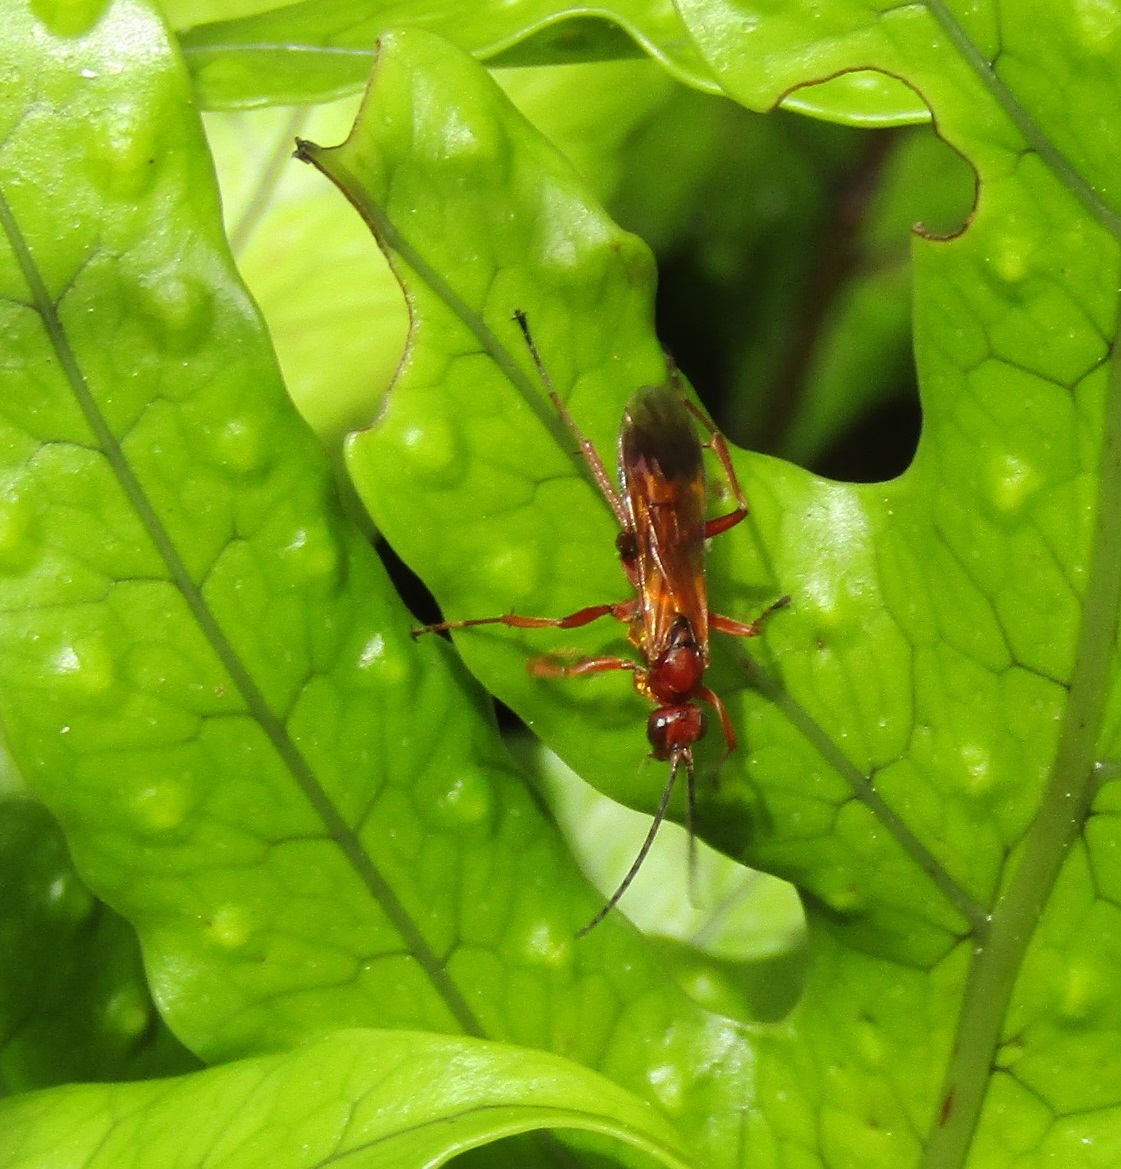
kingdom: Animalia
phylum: Arthropoda
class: Insecta
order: Hymenoptera
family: Pompilidae
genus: Sphictostethus
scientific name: Sphictostethus nitidus
